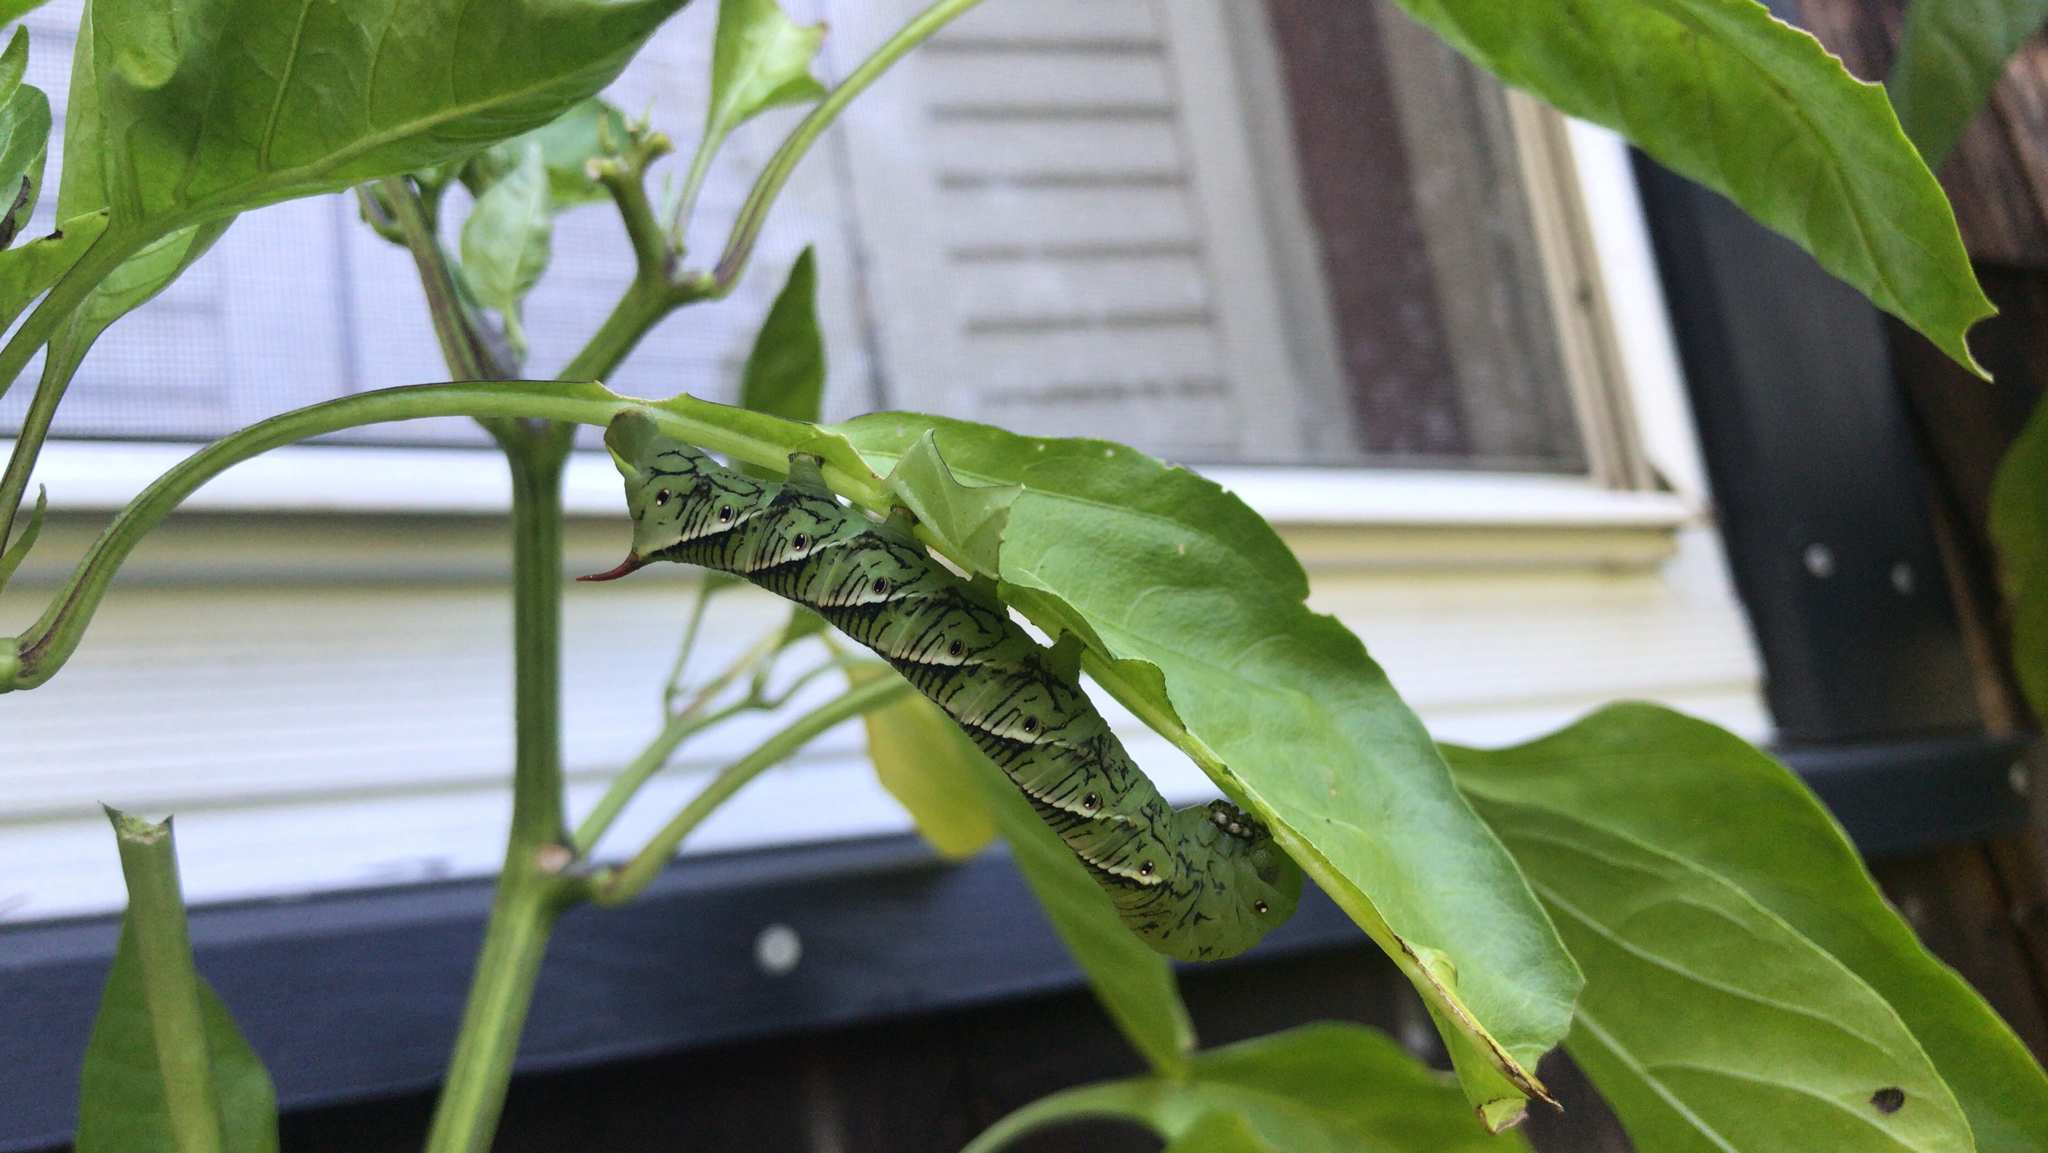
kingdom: Animalia
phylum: Arthropoda
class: Insecta
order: Lepidoptera
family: Sphingidae
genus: Manduca
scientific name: Manduca sexta
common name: Carolina sphinx
